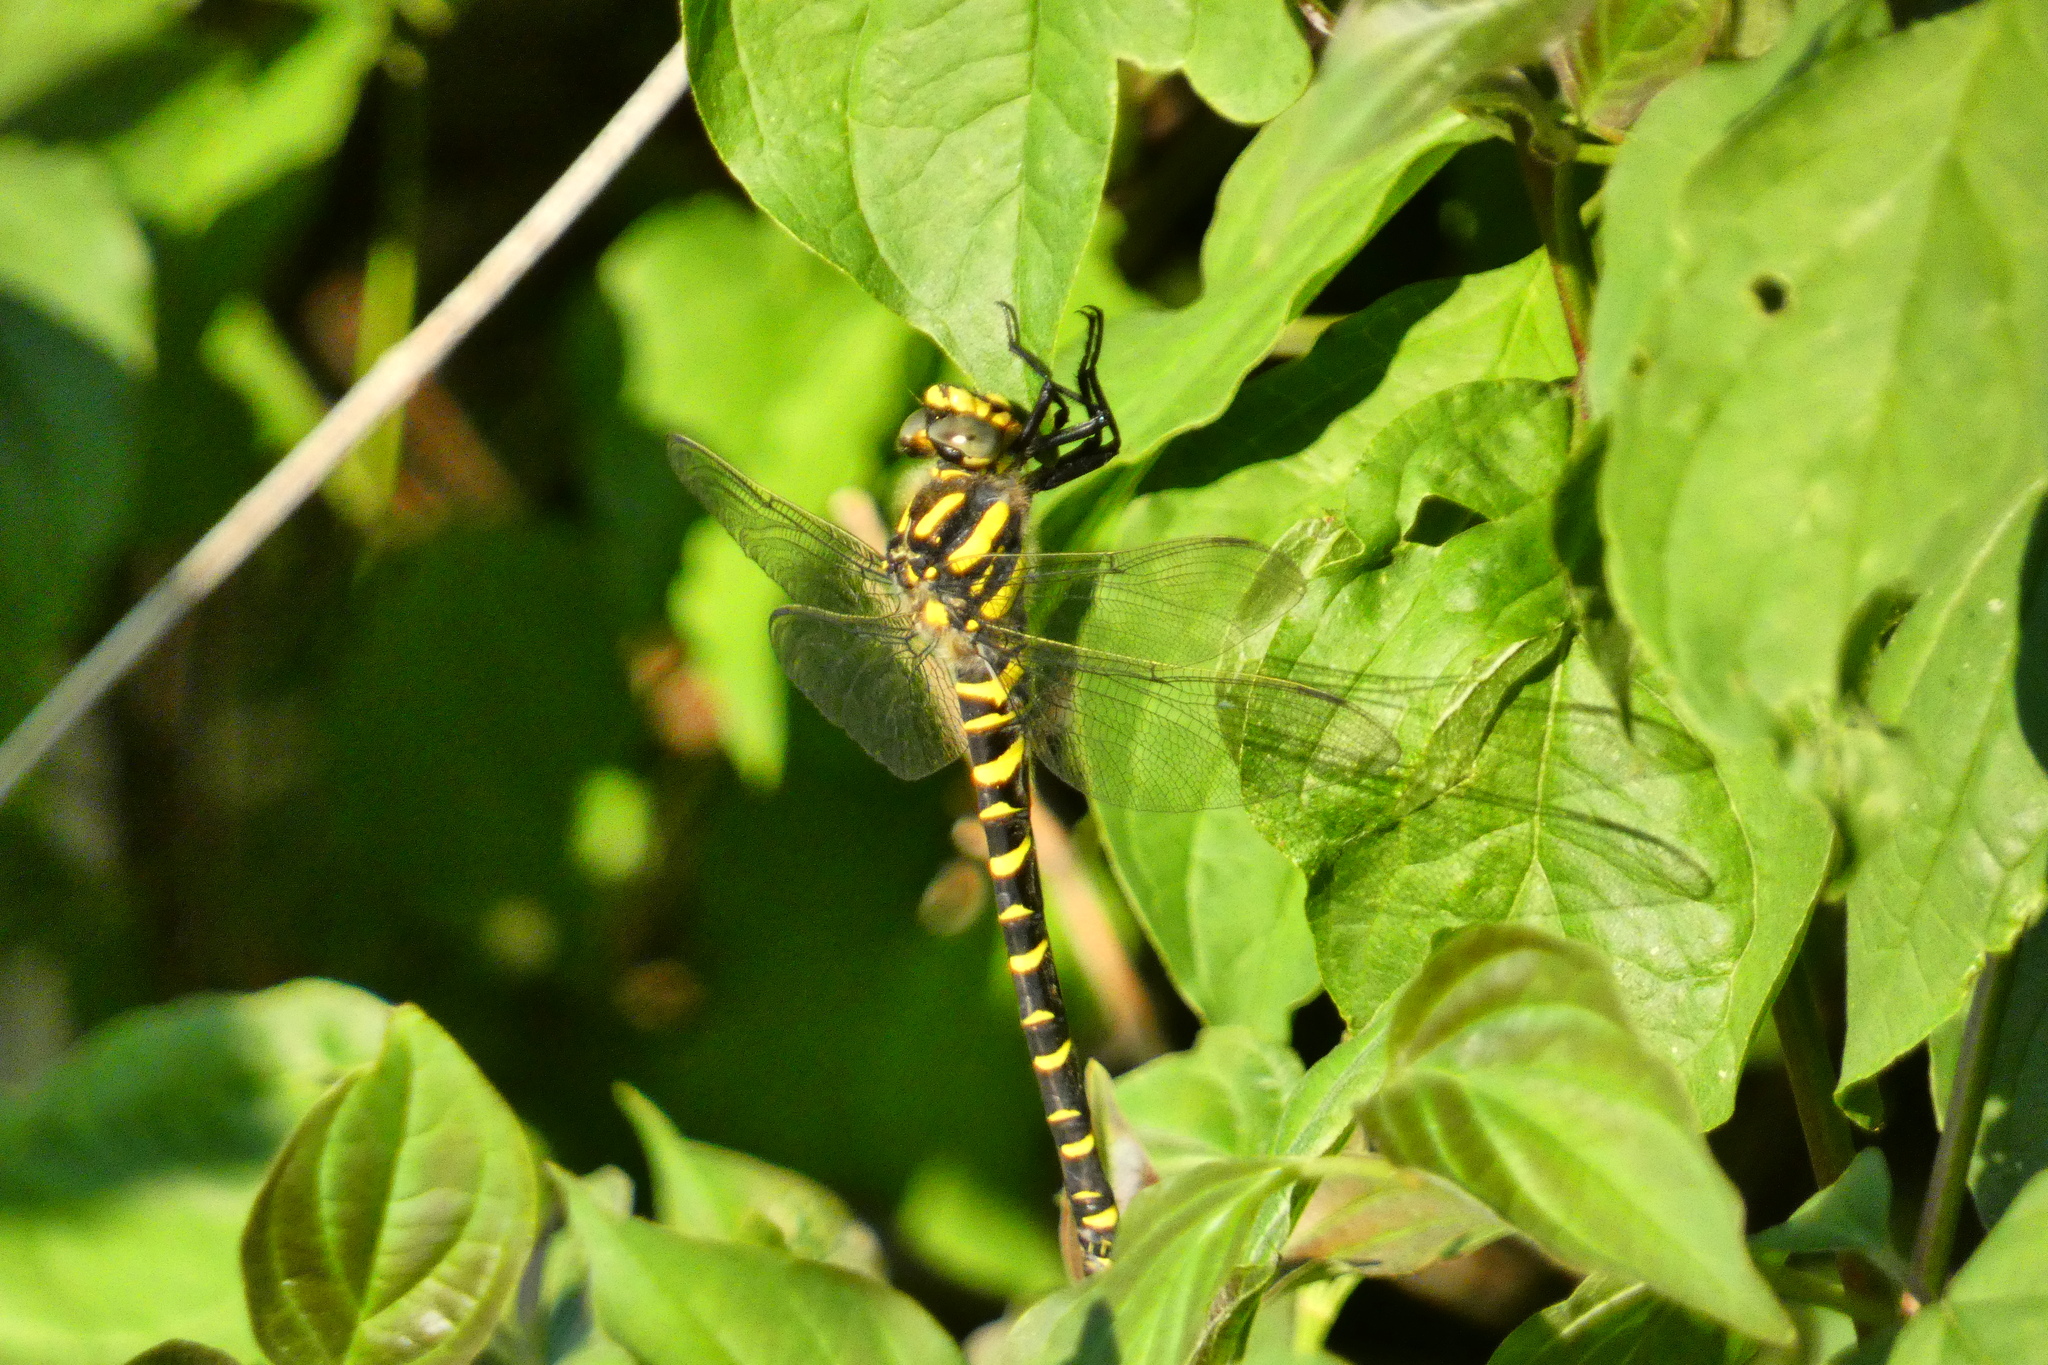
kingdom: Animalia
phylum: Arthropoda
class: Insecta
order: Odonata
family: Cordulegastridae
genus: Cordulegaster
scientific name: Cordulegaster boltonii
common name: Golden-ringed dragonfly
